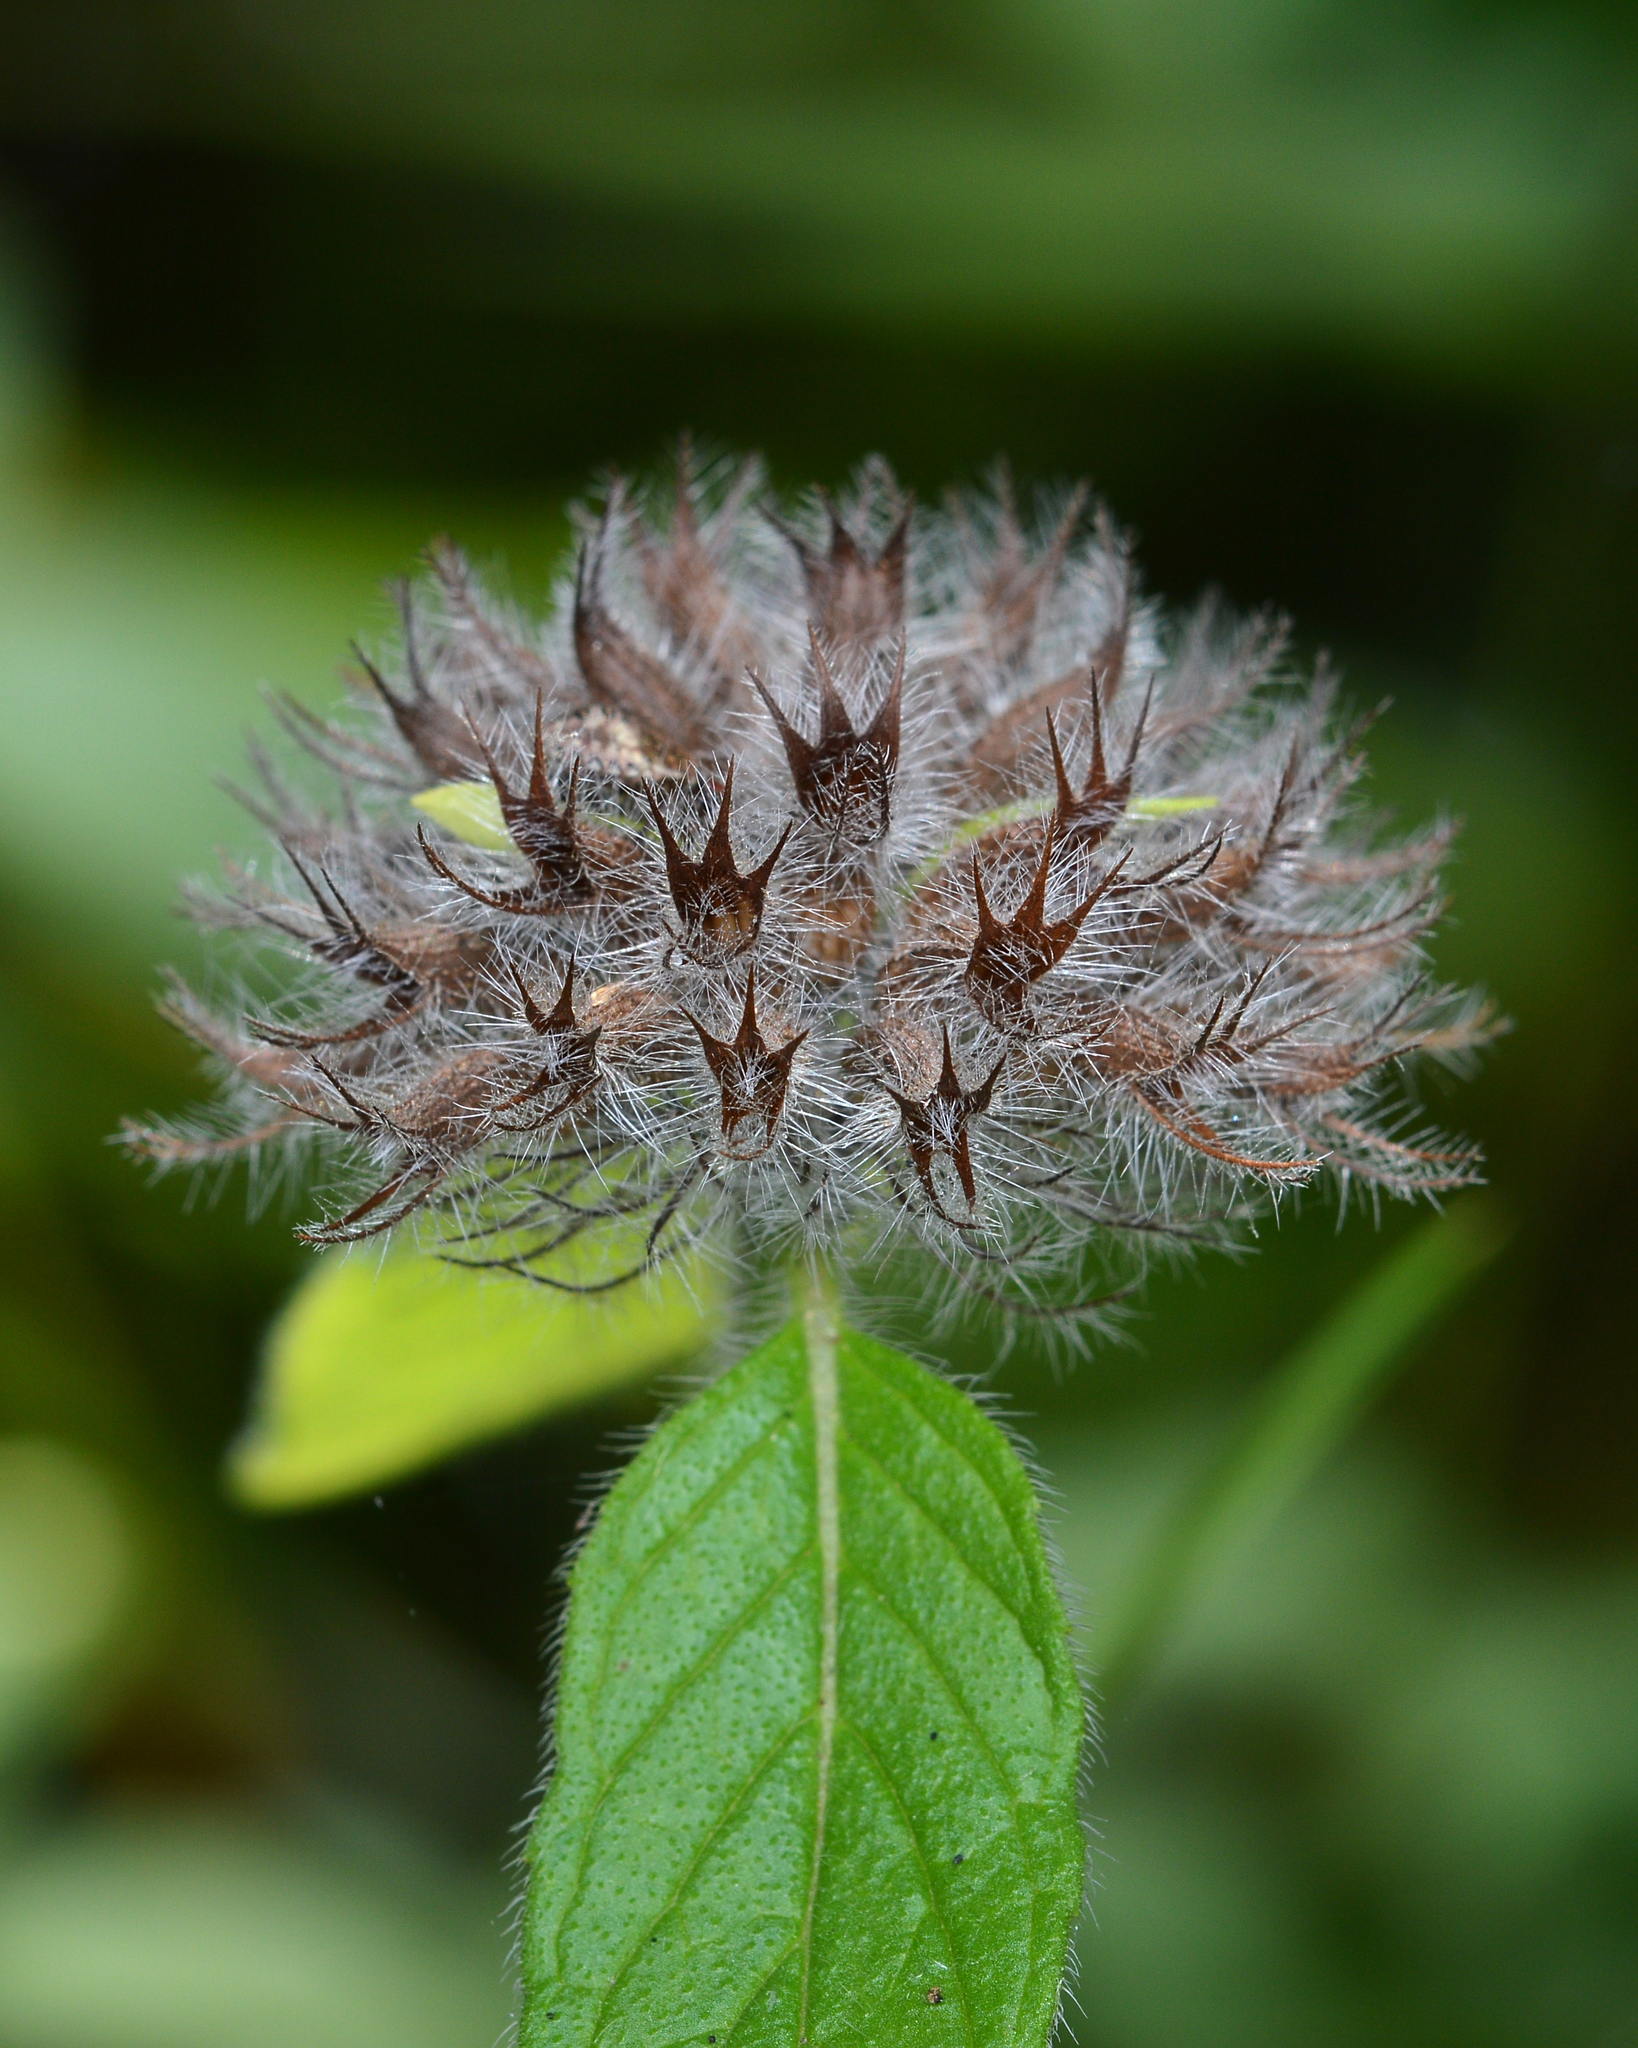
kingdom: Plantae
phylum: Tracheophyta
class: Magnoliopsida
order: Lamiales
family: Lamiaceae
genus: Clinopodium
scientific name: Clinopodium vulgare
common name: Wild basil
